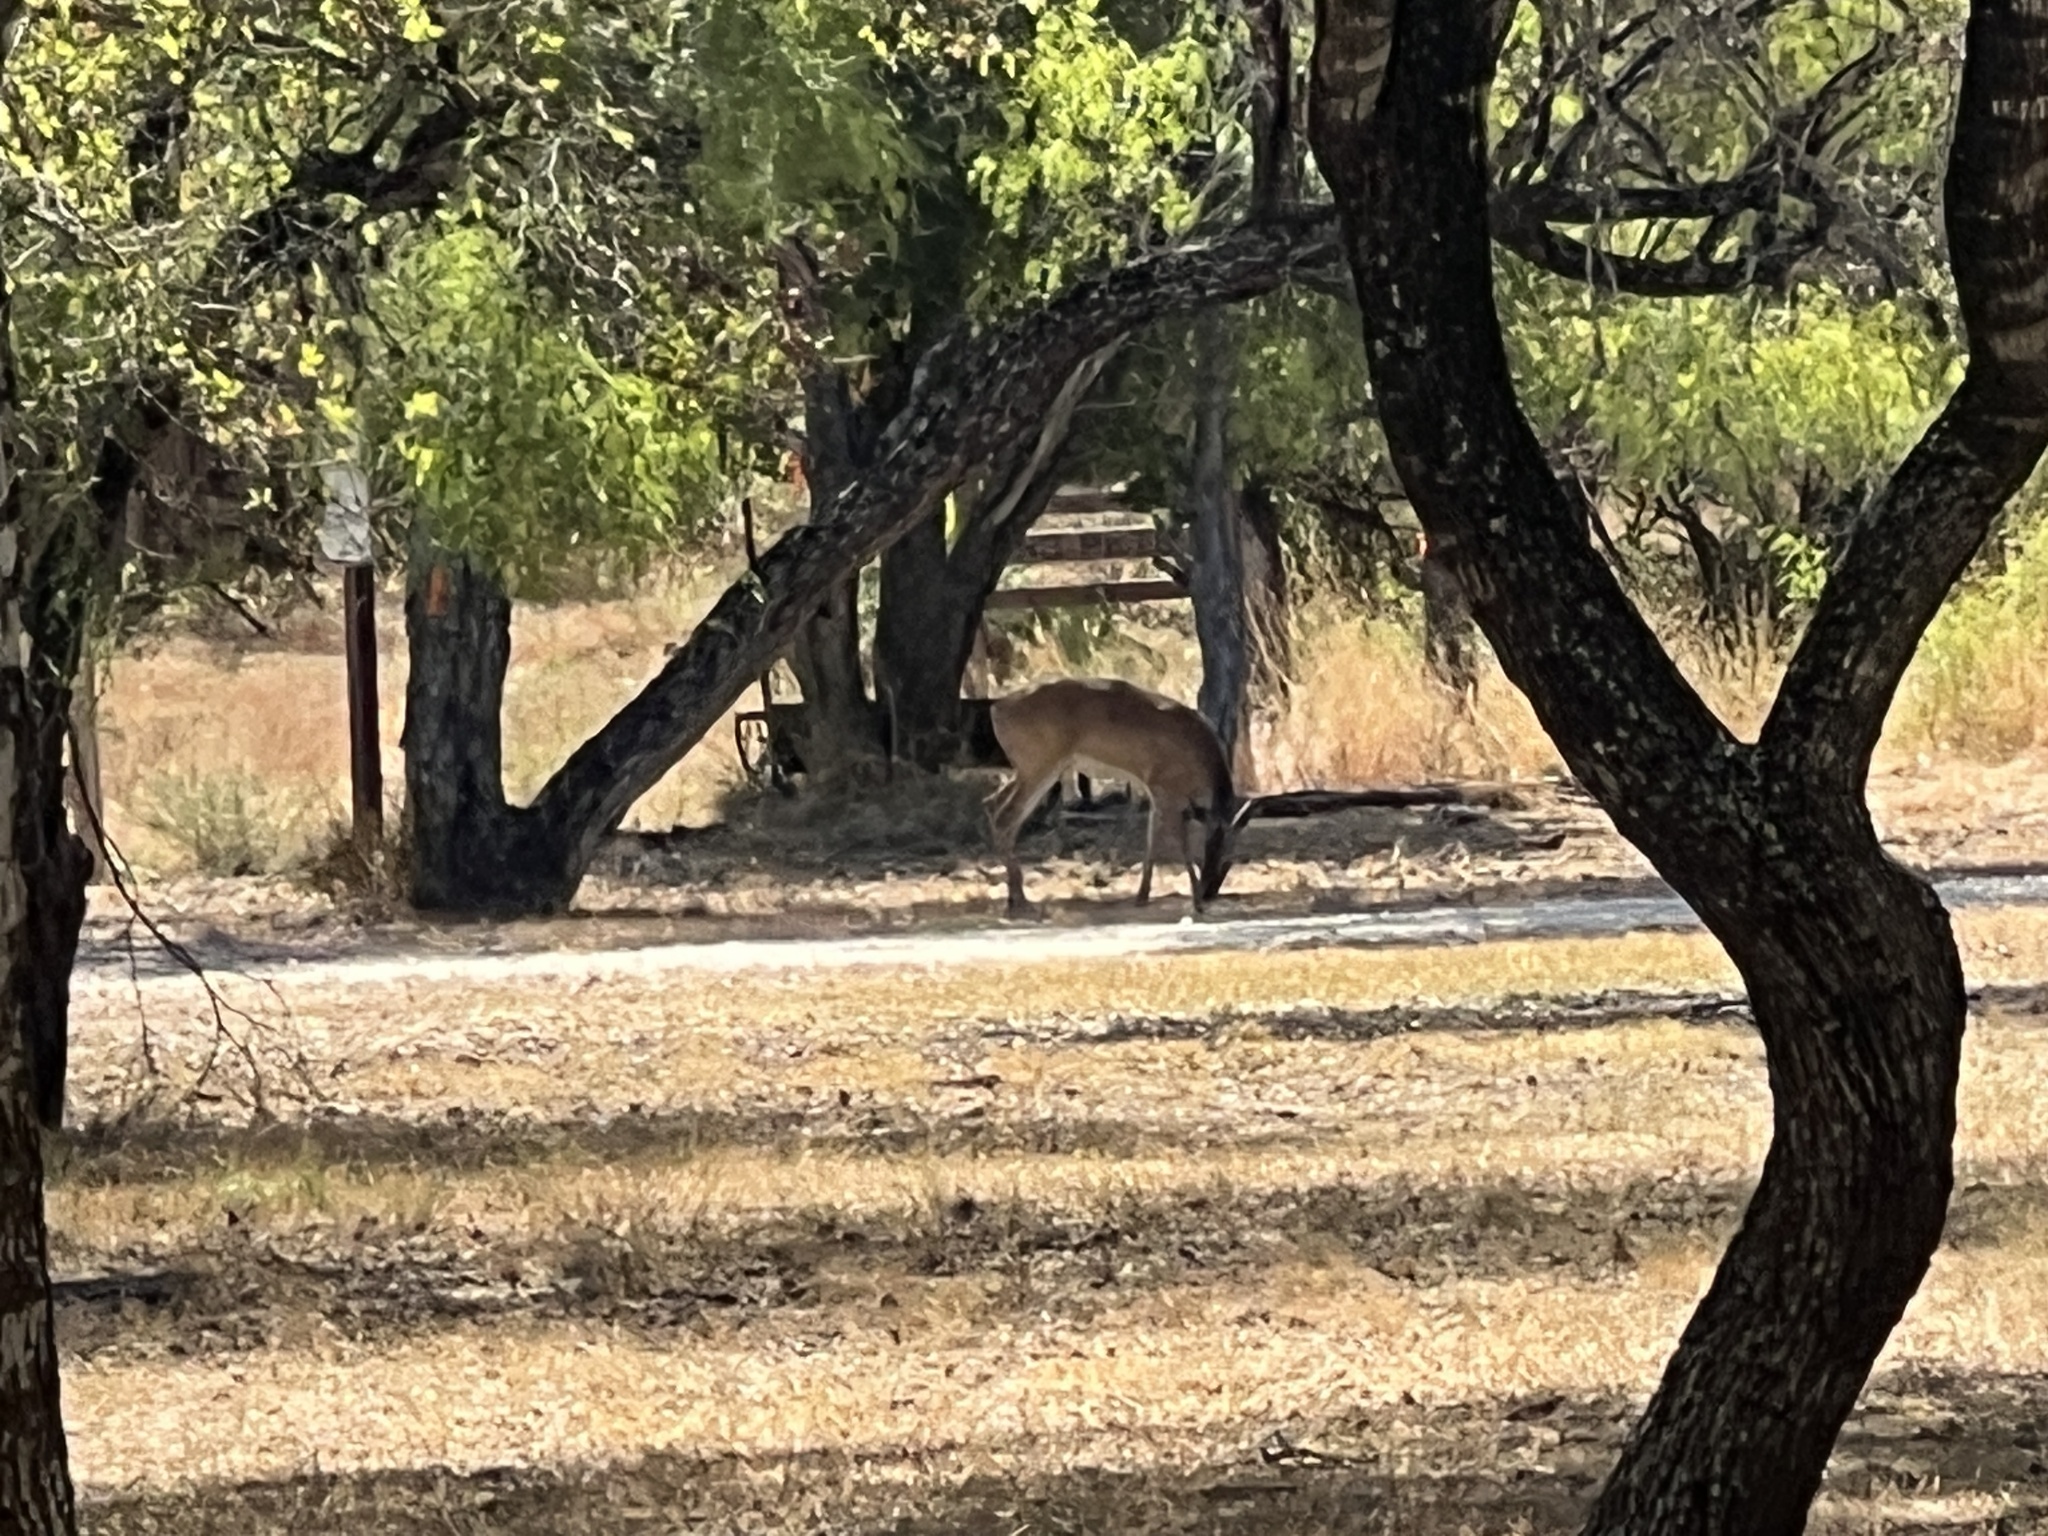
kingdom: Animalia
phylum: Chordata
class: Mammalia
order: Artiodactyla
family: Cervidae
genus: Odocoileus
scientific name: Odocoileus virginianus
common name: White-tailed deer
